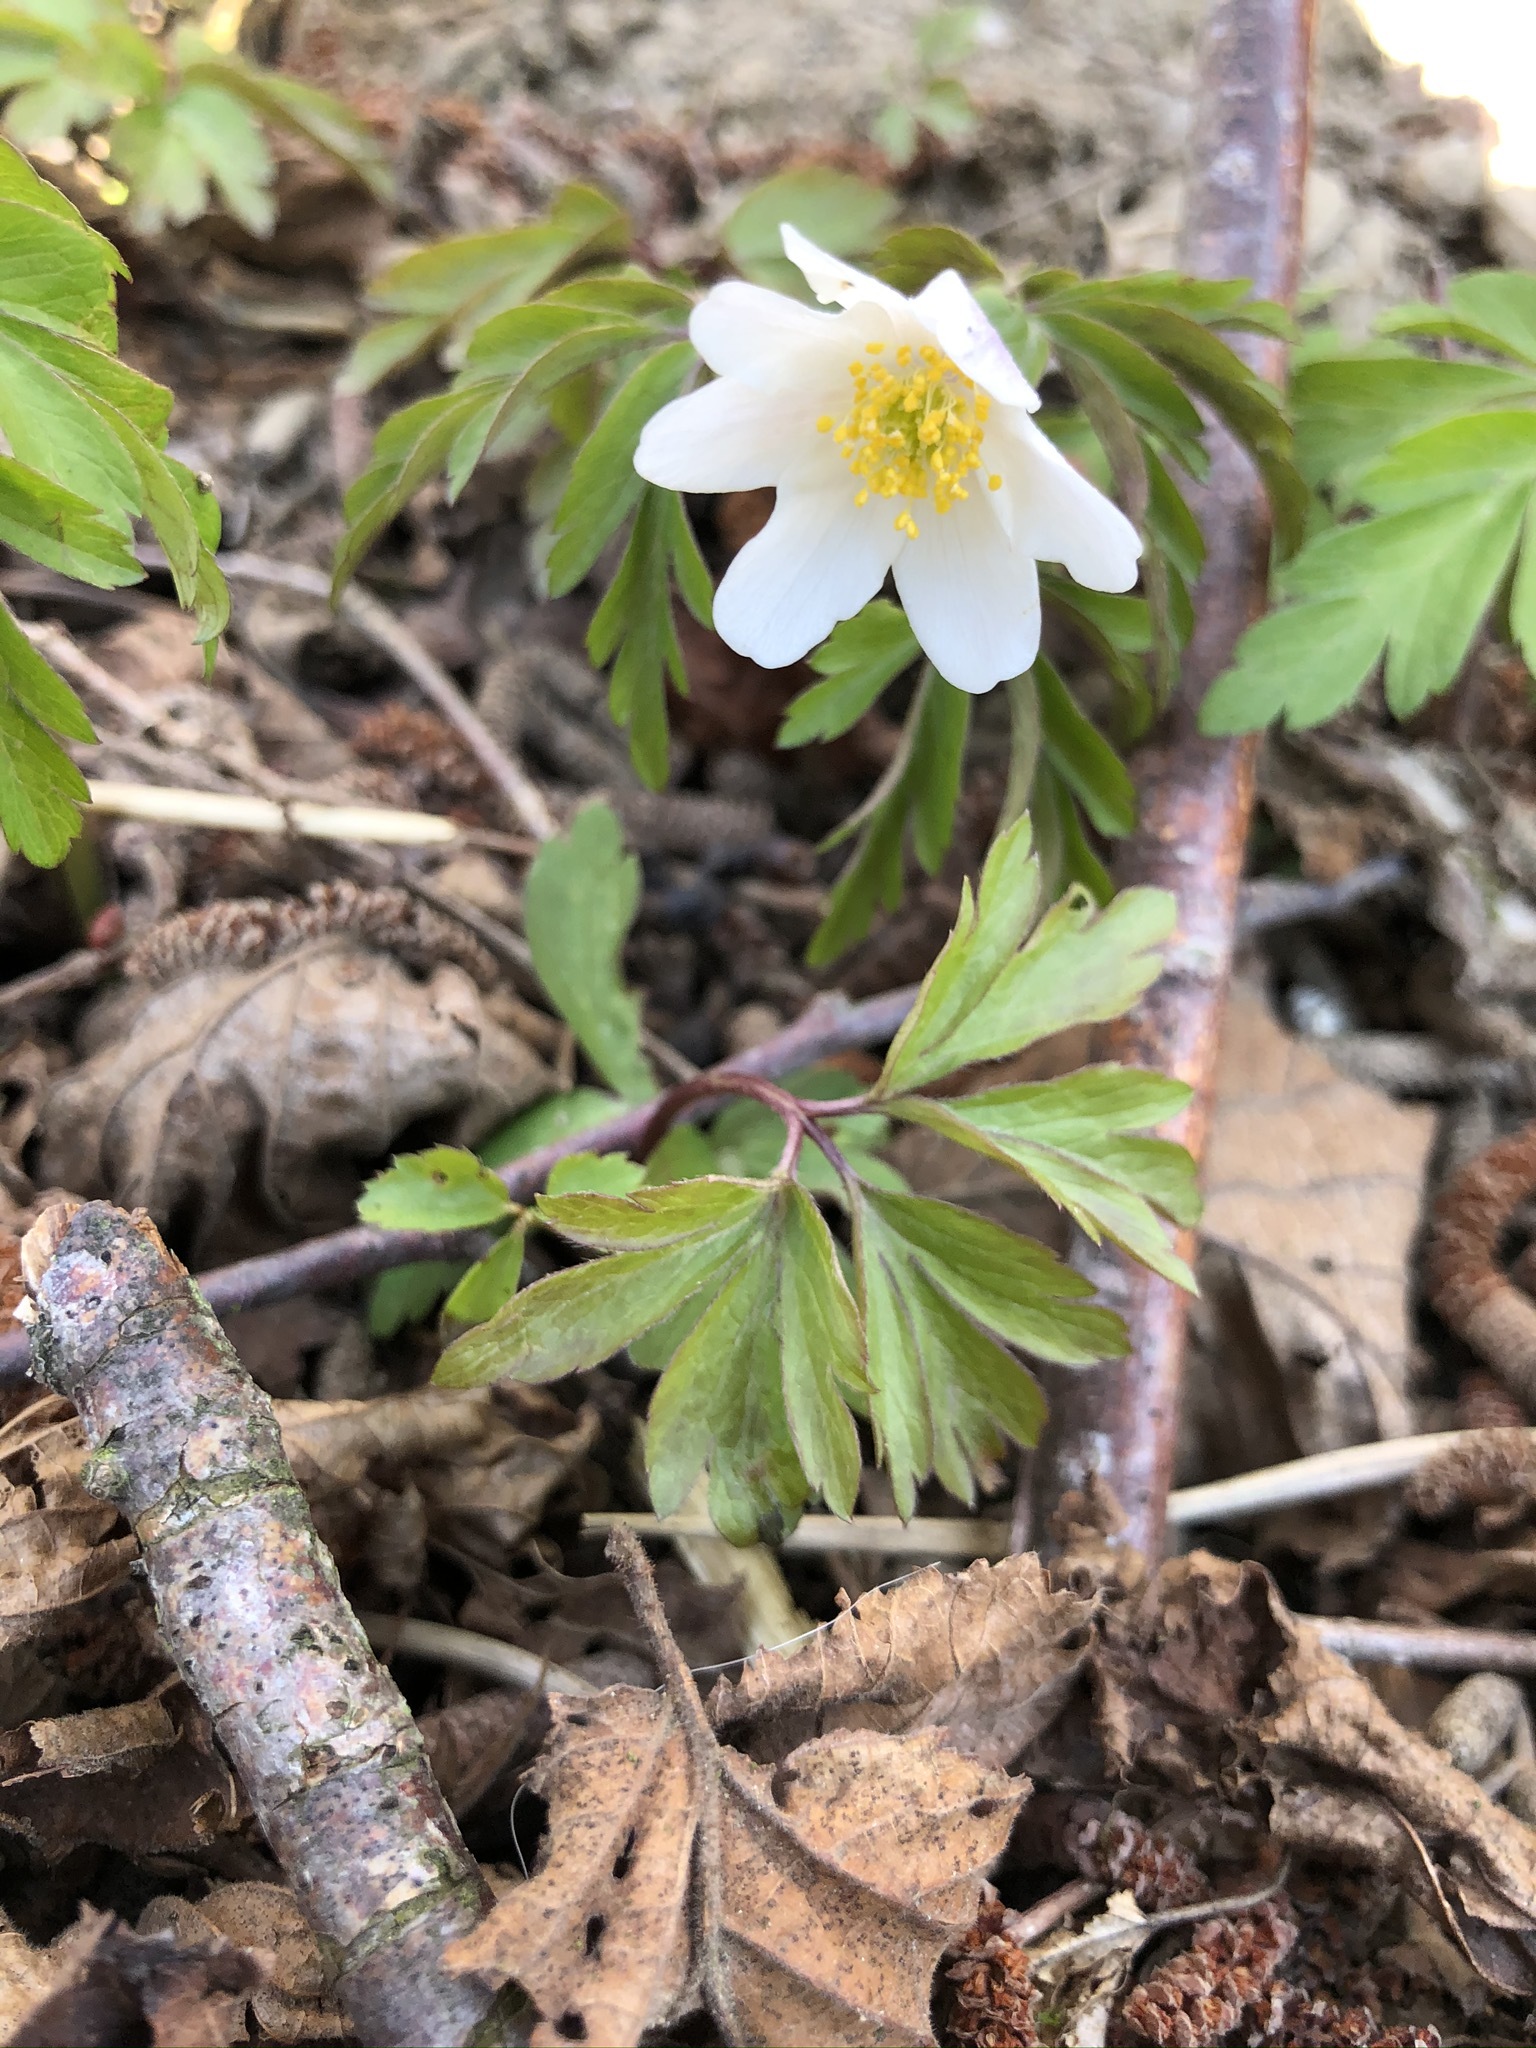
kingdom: Plantae
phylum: Tracheophyta
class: Magnoliopsida
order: Ranunculales
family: Ranunculaceae
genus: Anemone
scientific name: Anemone nemorosa
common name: Wood anemone
